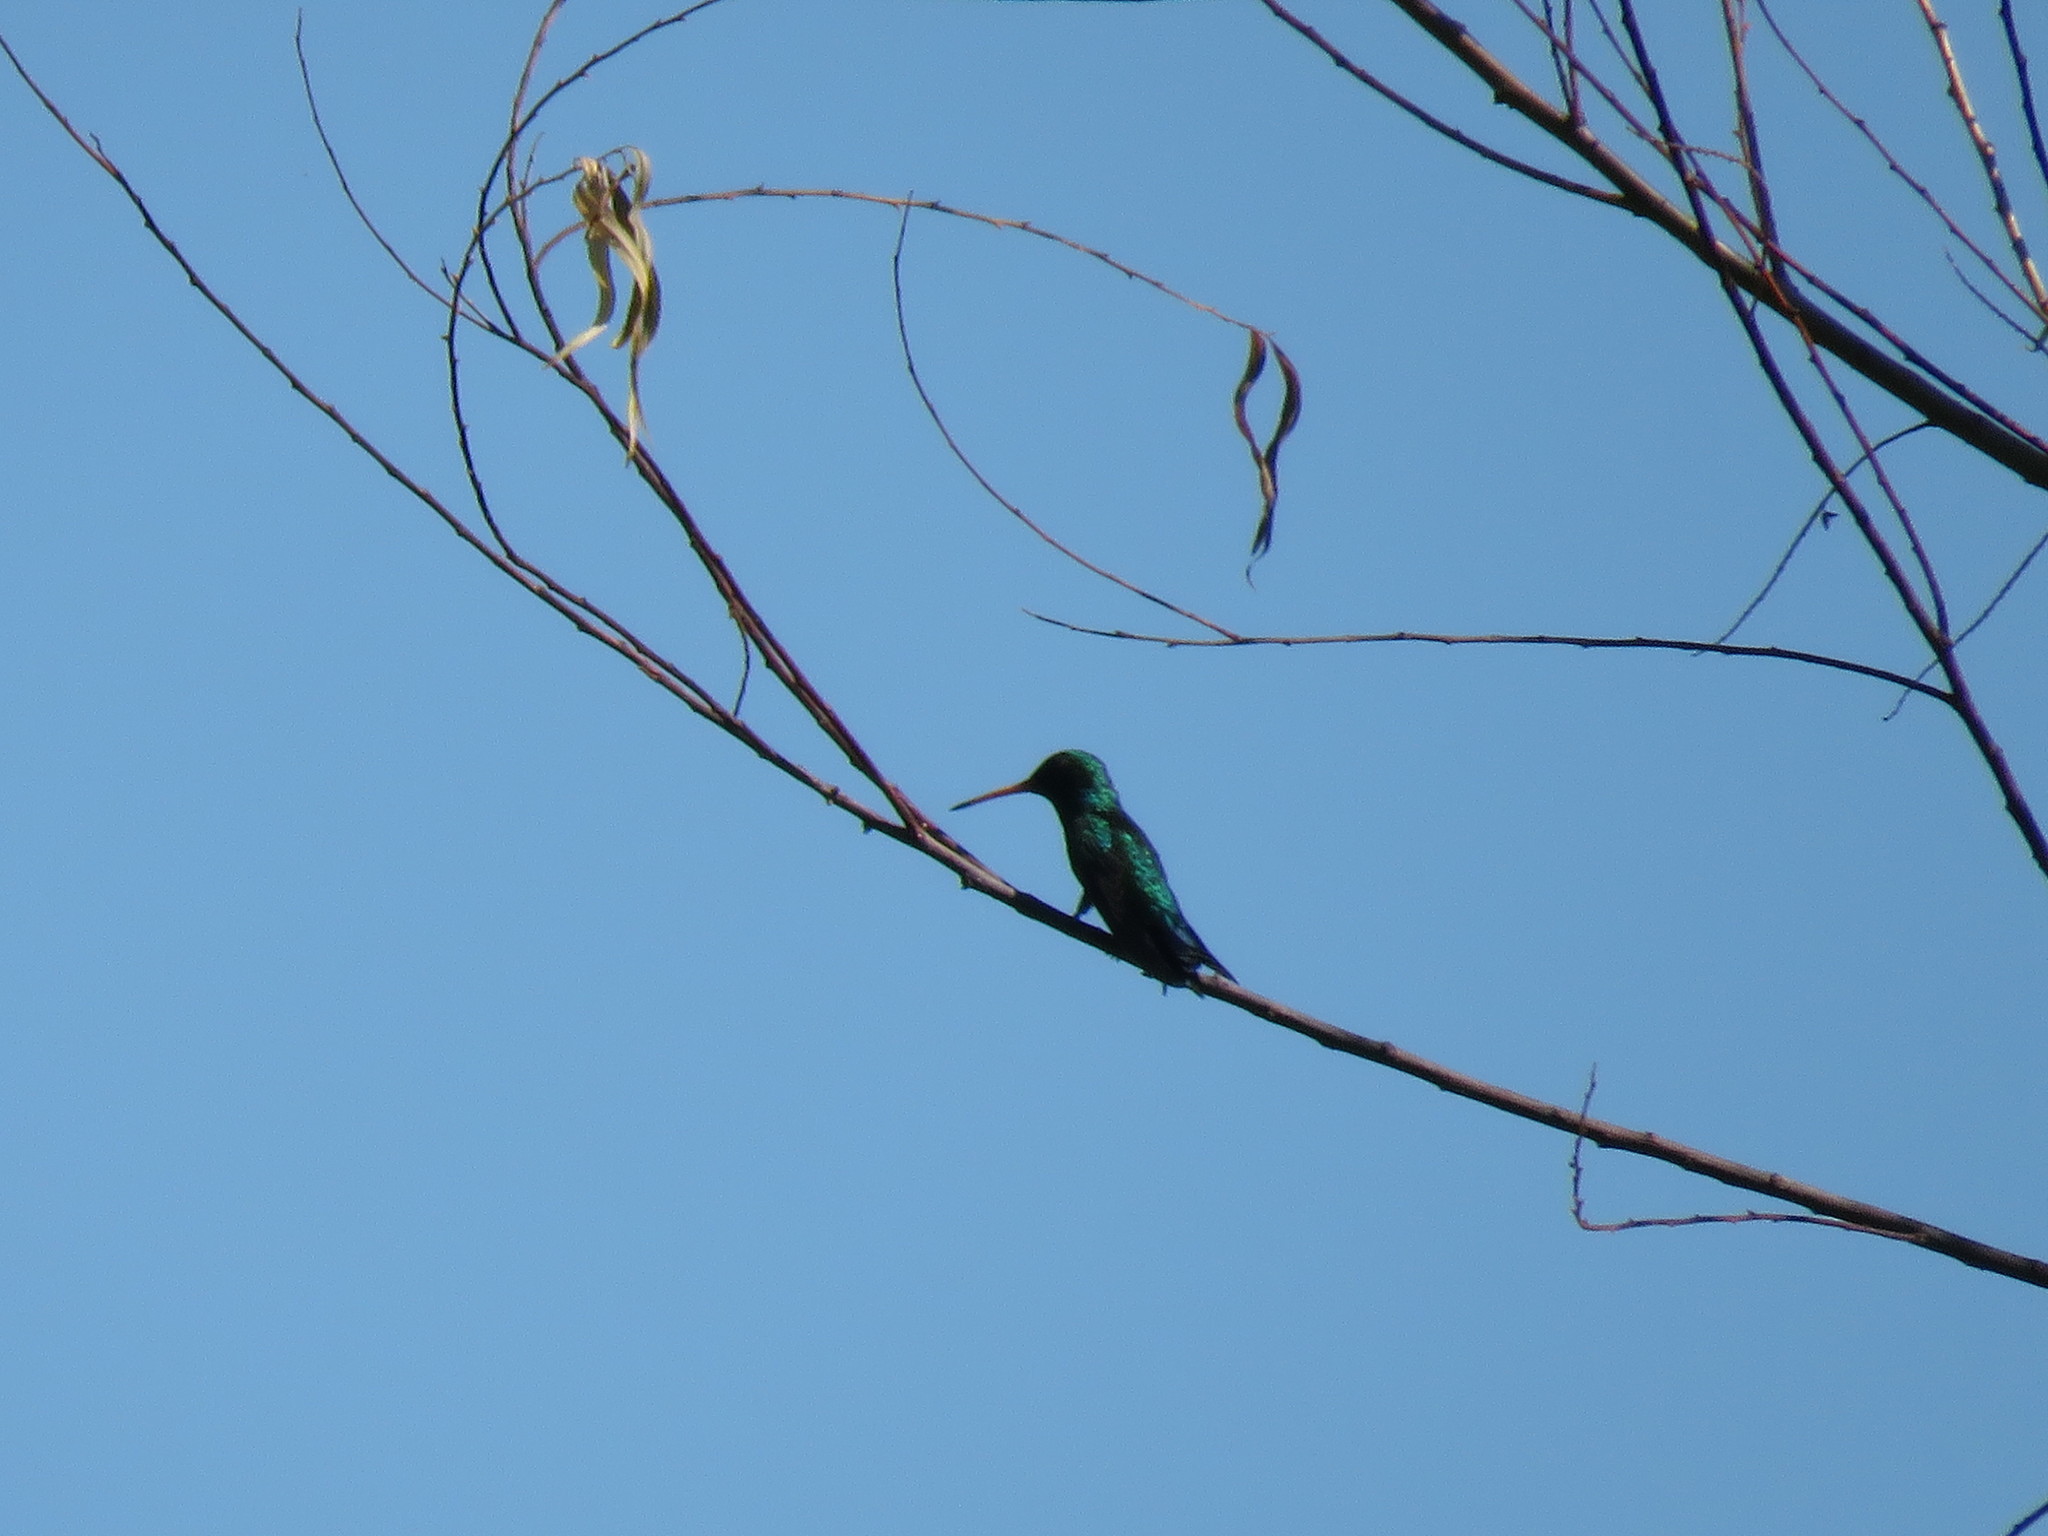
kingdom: Animalia
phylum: Chordata
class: Aves
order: Apodiformes
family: Trochilidae
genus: Chlorostilbon
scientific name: Chlorostilbon lucidus
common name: Glittering-bellied emerald
